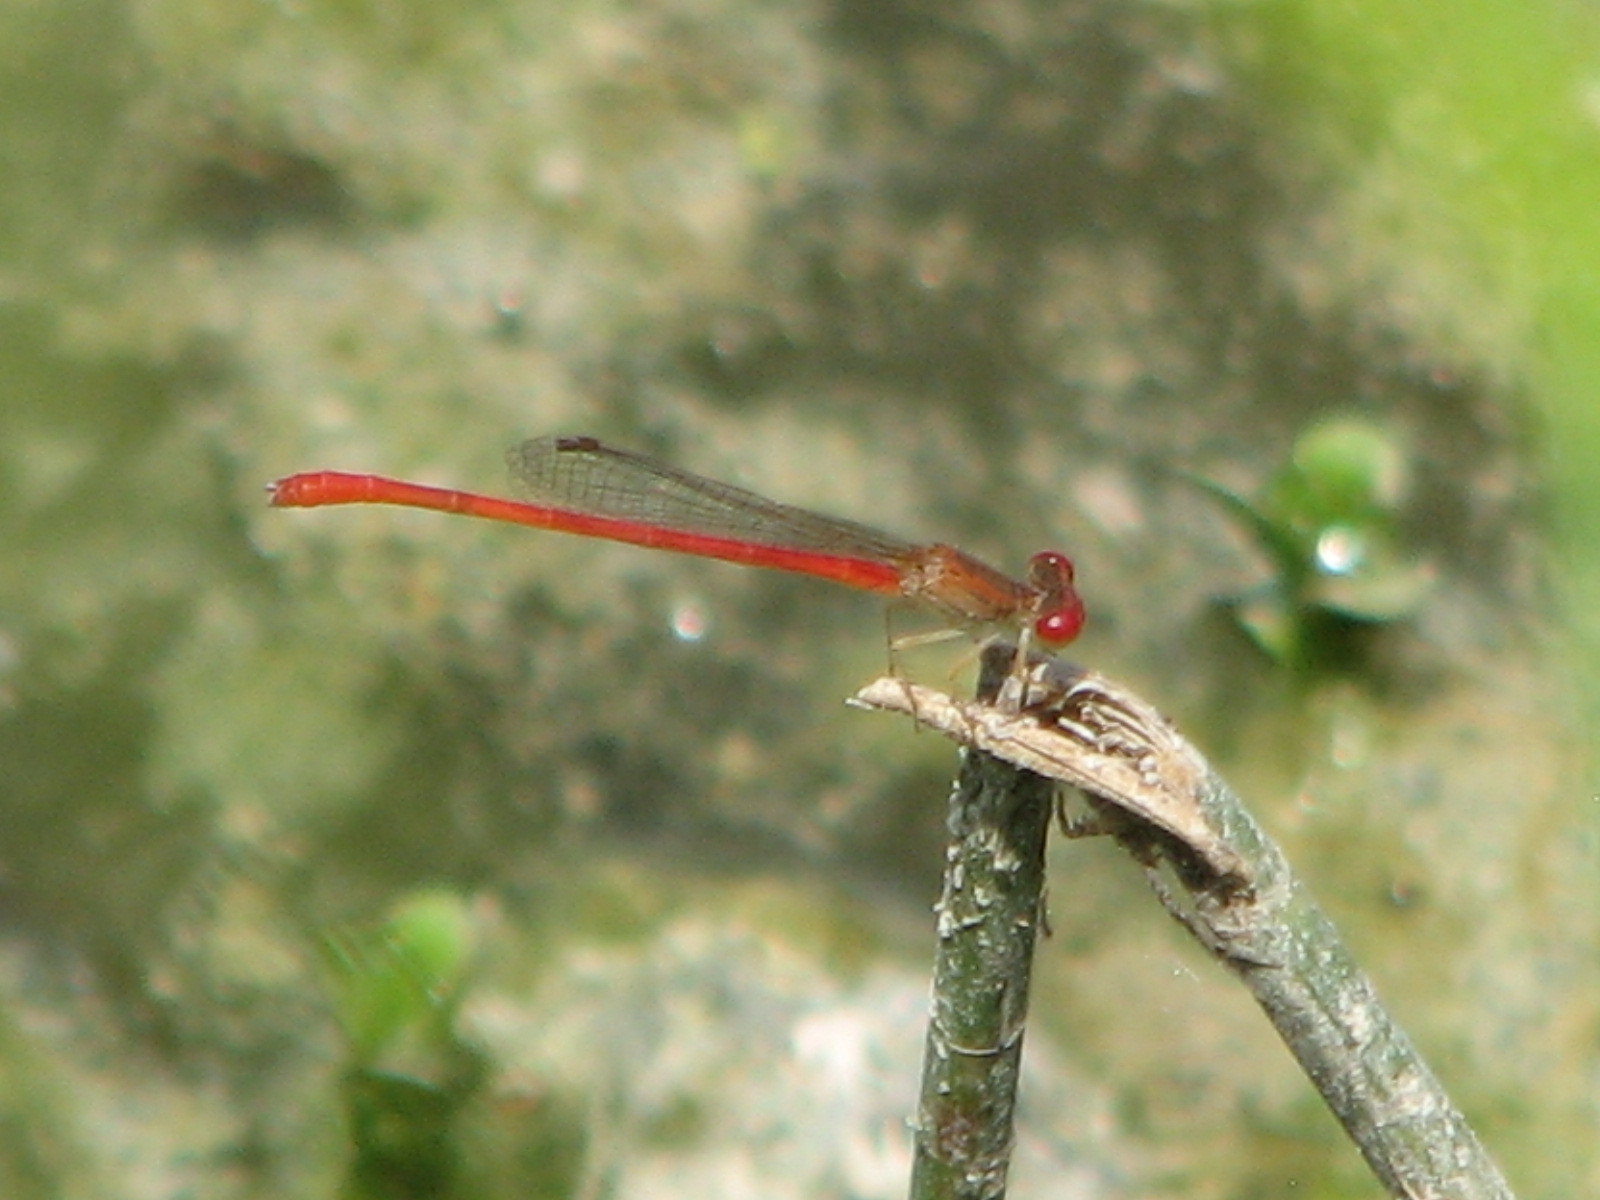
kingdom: Animalia
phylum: Arthropoda
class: Insecta
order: Odonata
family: Coenagrionidae
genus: Telebasis
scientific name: Telebasis salva
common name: Desert firetail
